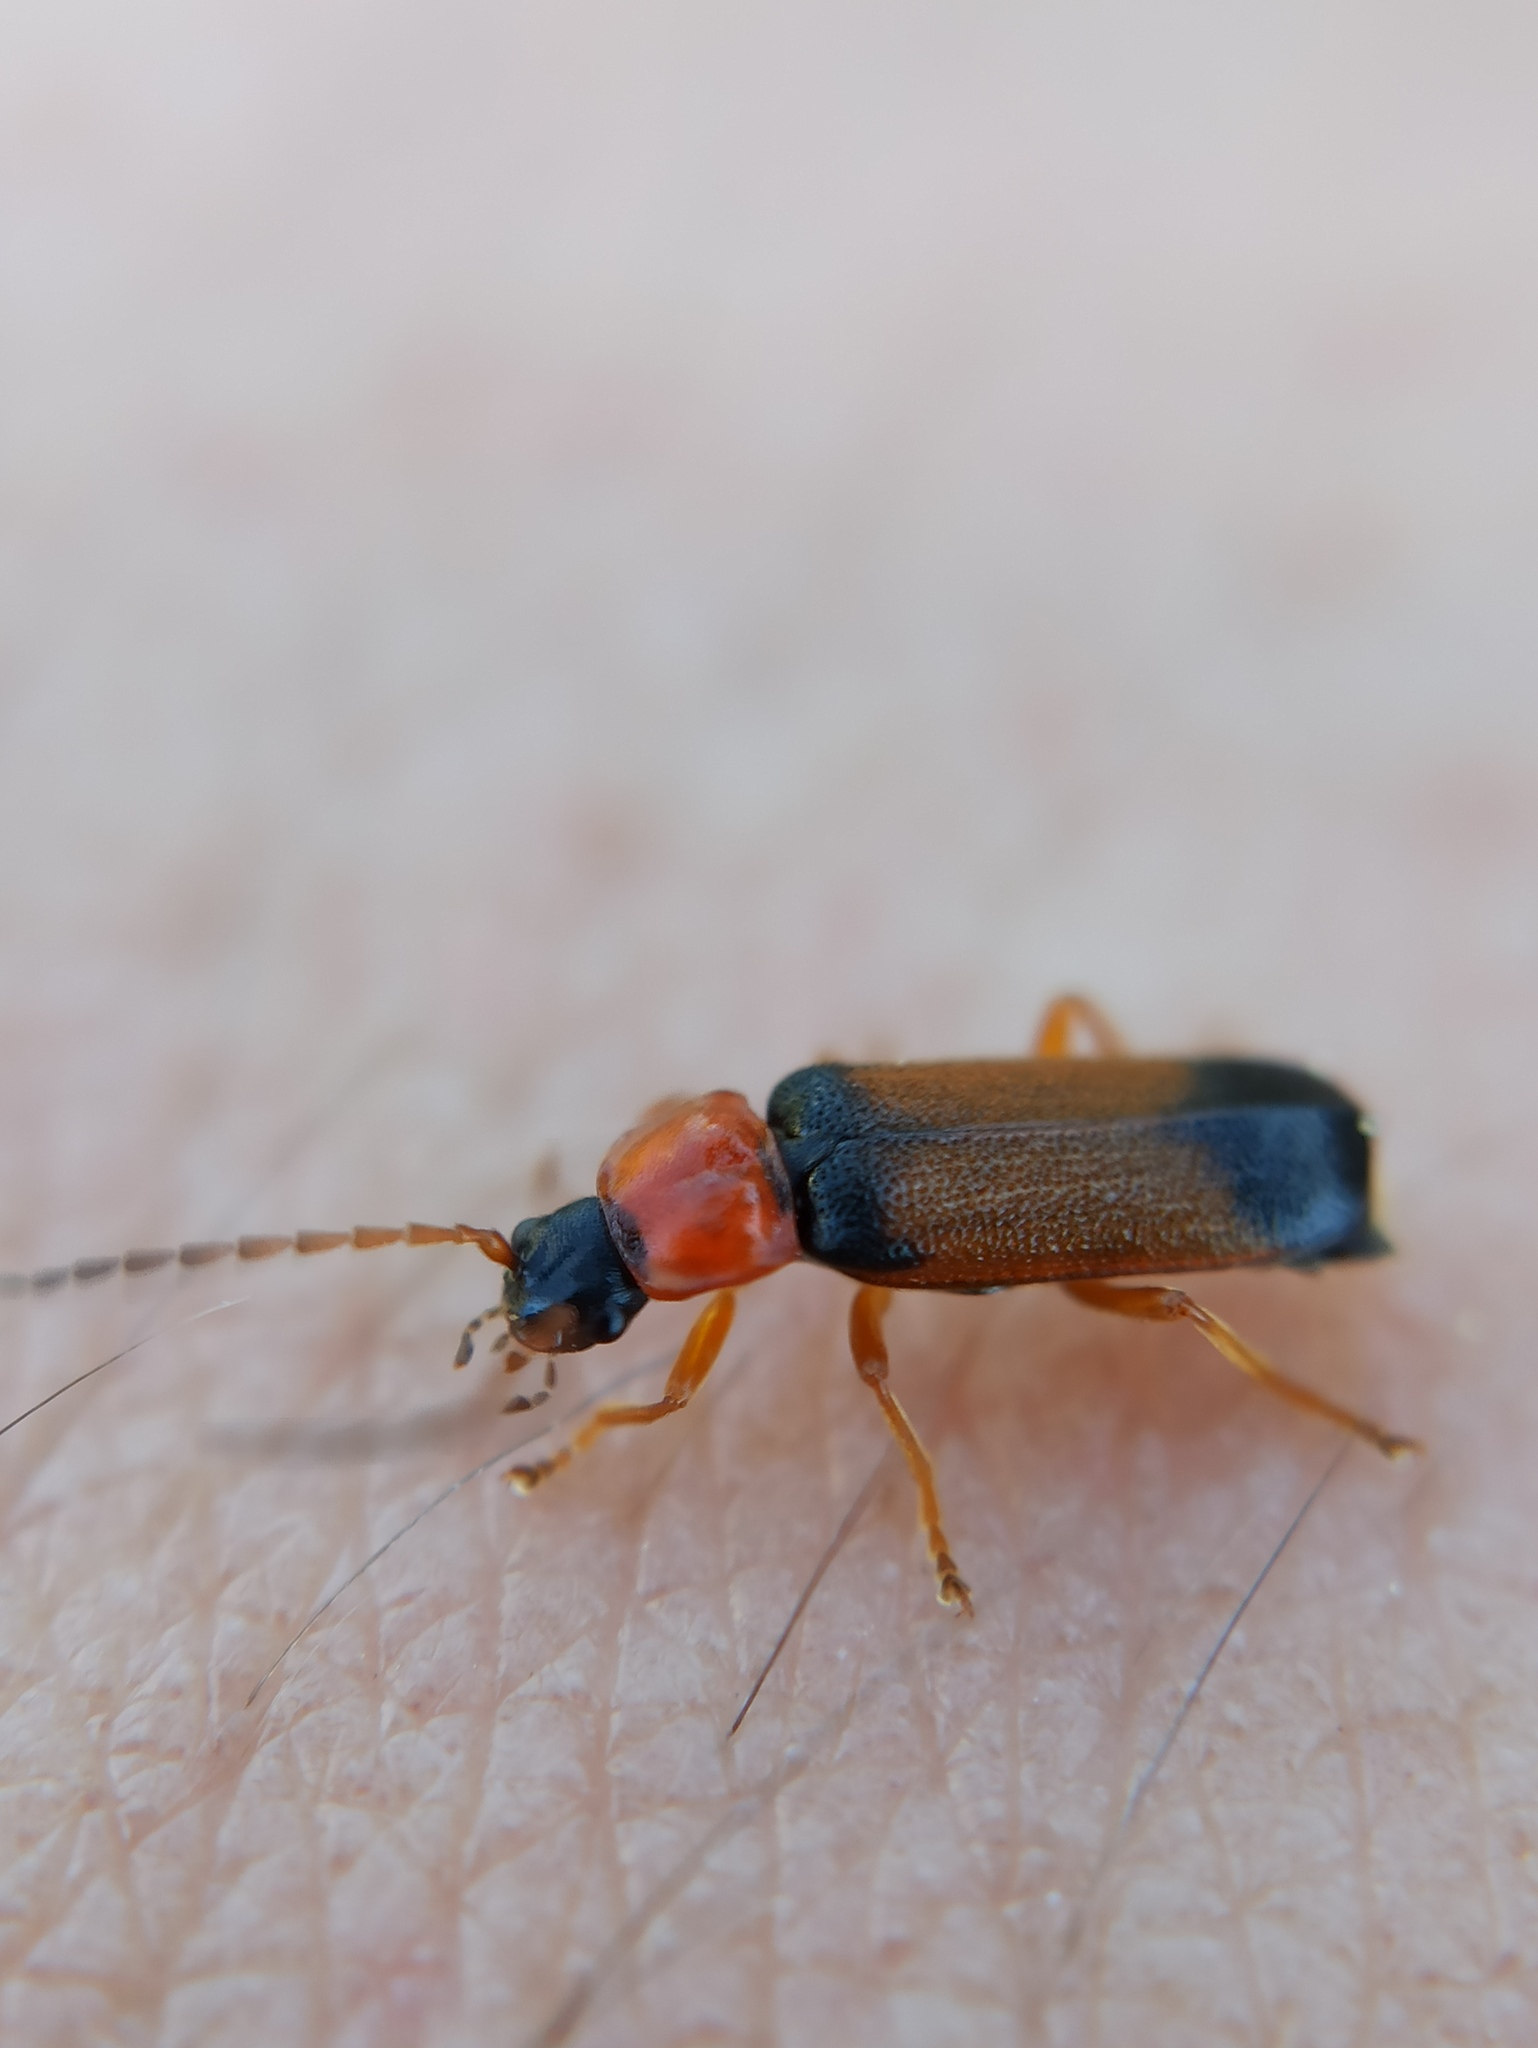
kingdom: Animalia
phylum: Arthropoda
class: Insecta
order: Coleoptera
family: Cantharidae
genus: Cratosilis
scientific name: Cratosilis laeta
